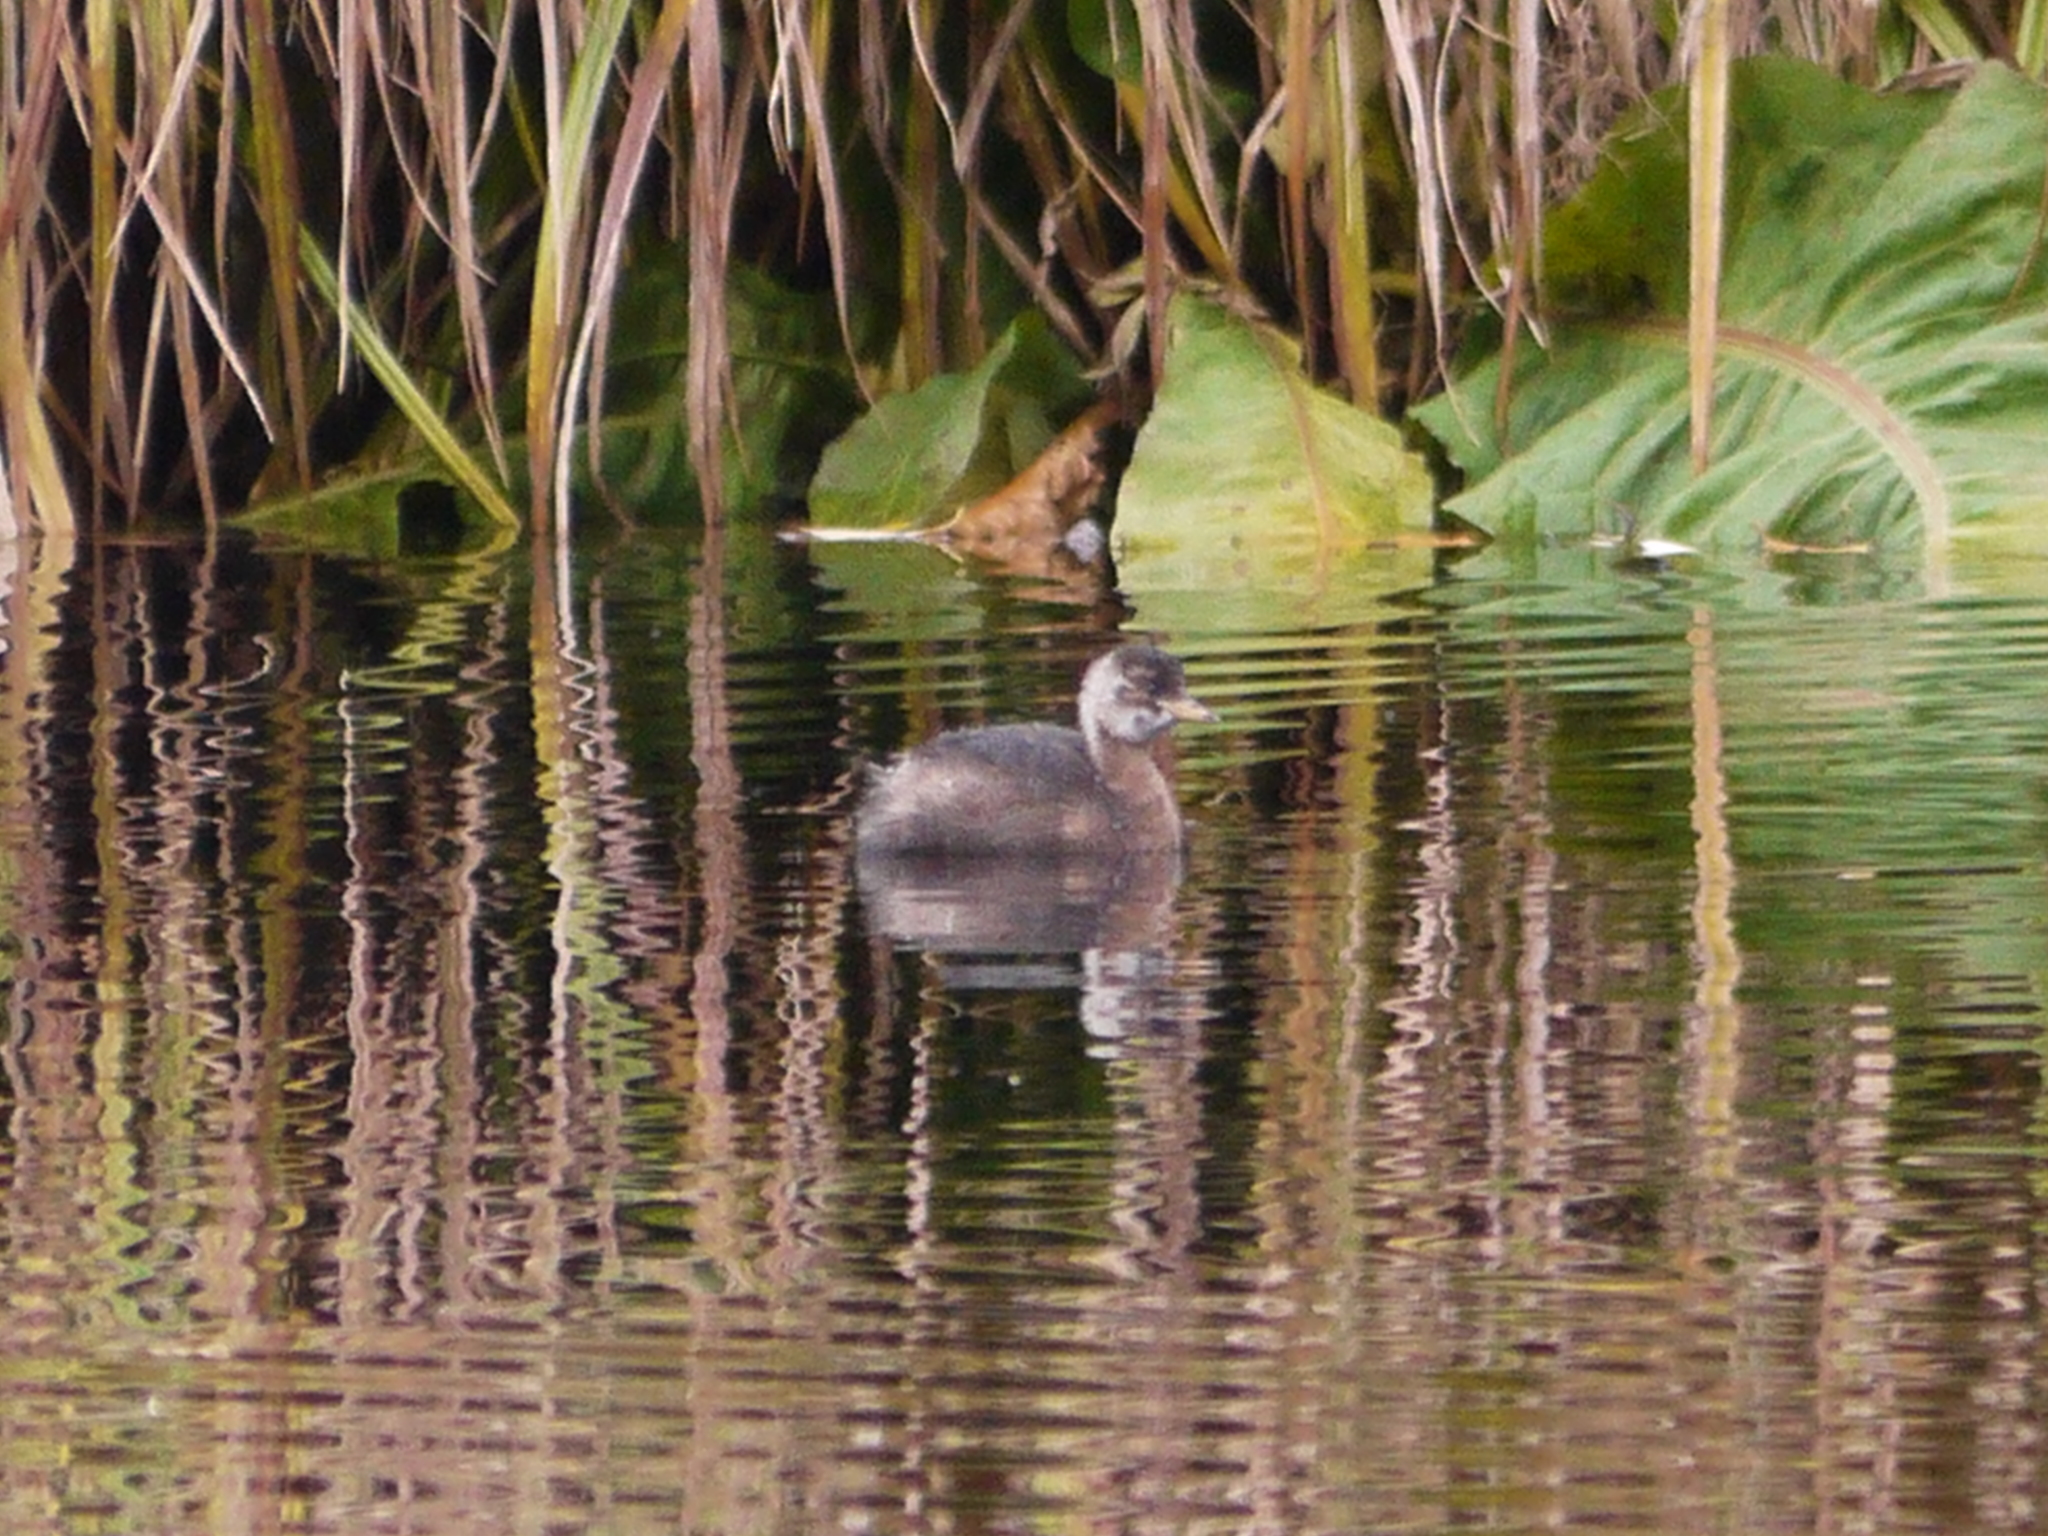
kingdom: Animalia
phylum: Chordata
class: Aves
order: Podicipediformes
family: Podicipedidae
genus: Tachybaptus
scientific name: Tachybaptus ruficollis
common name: Little grebe
